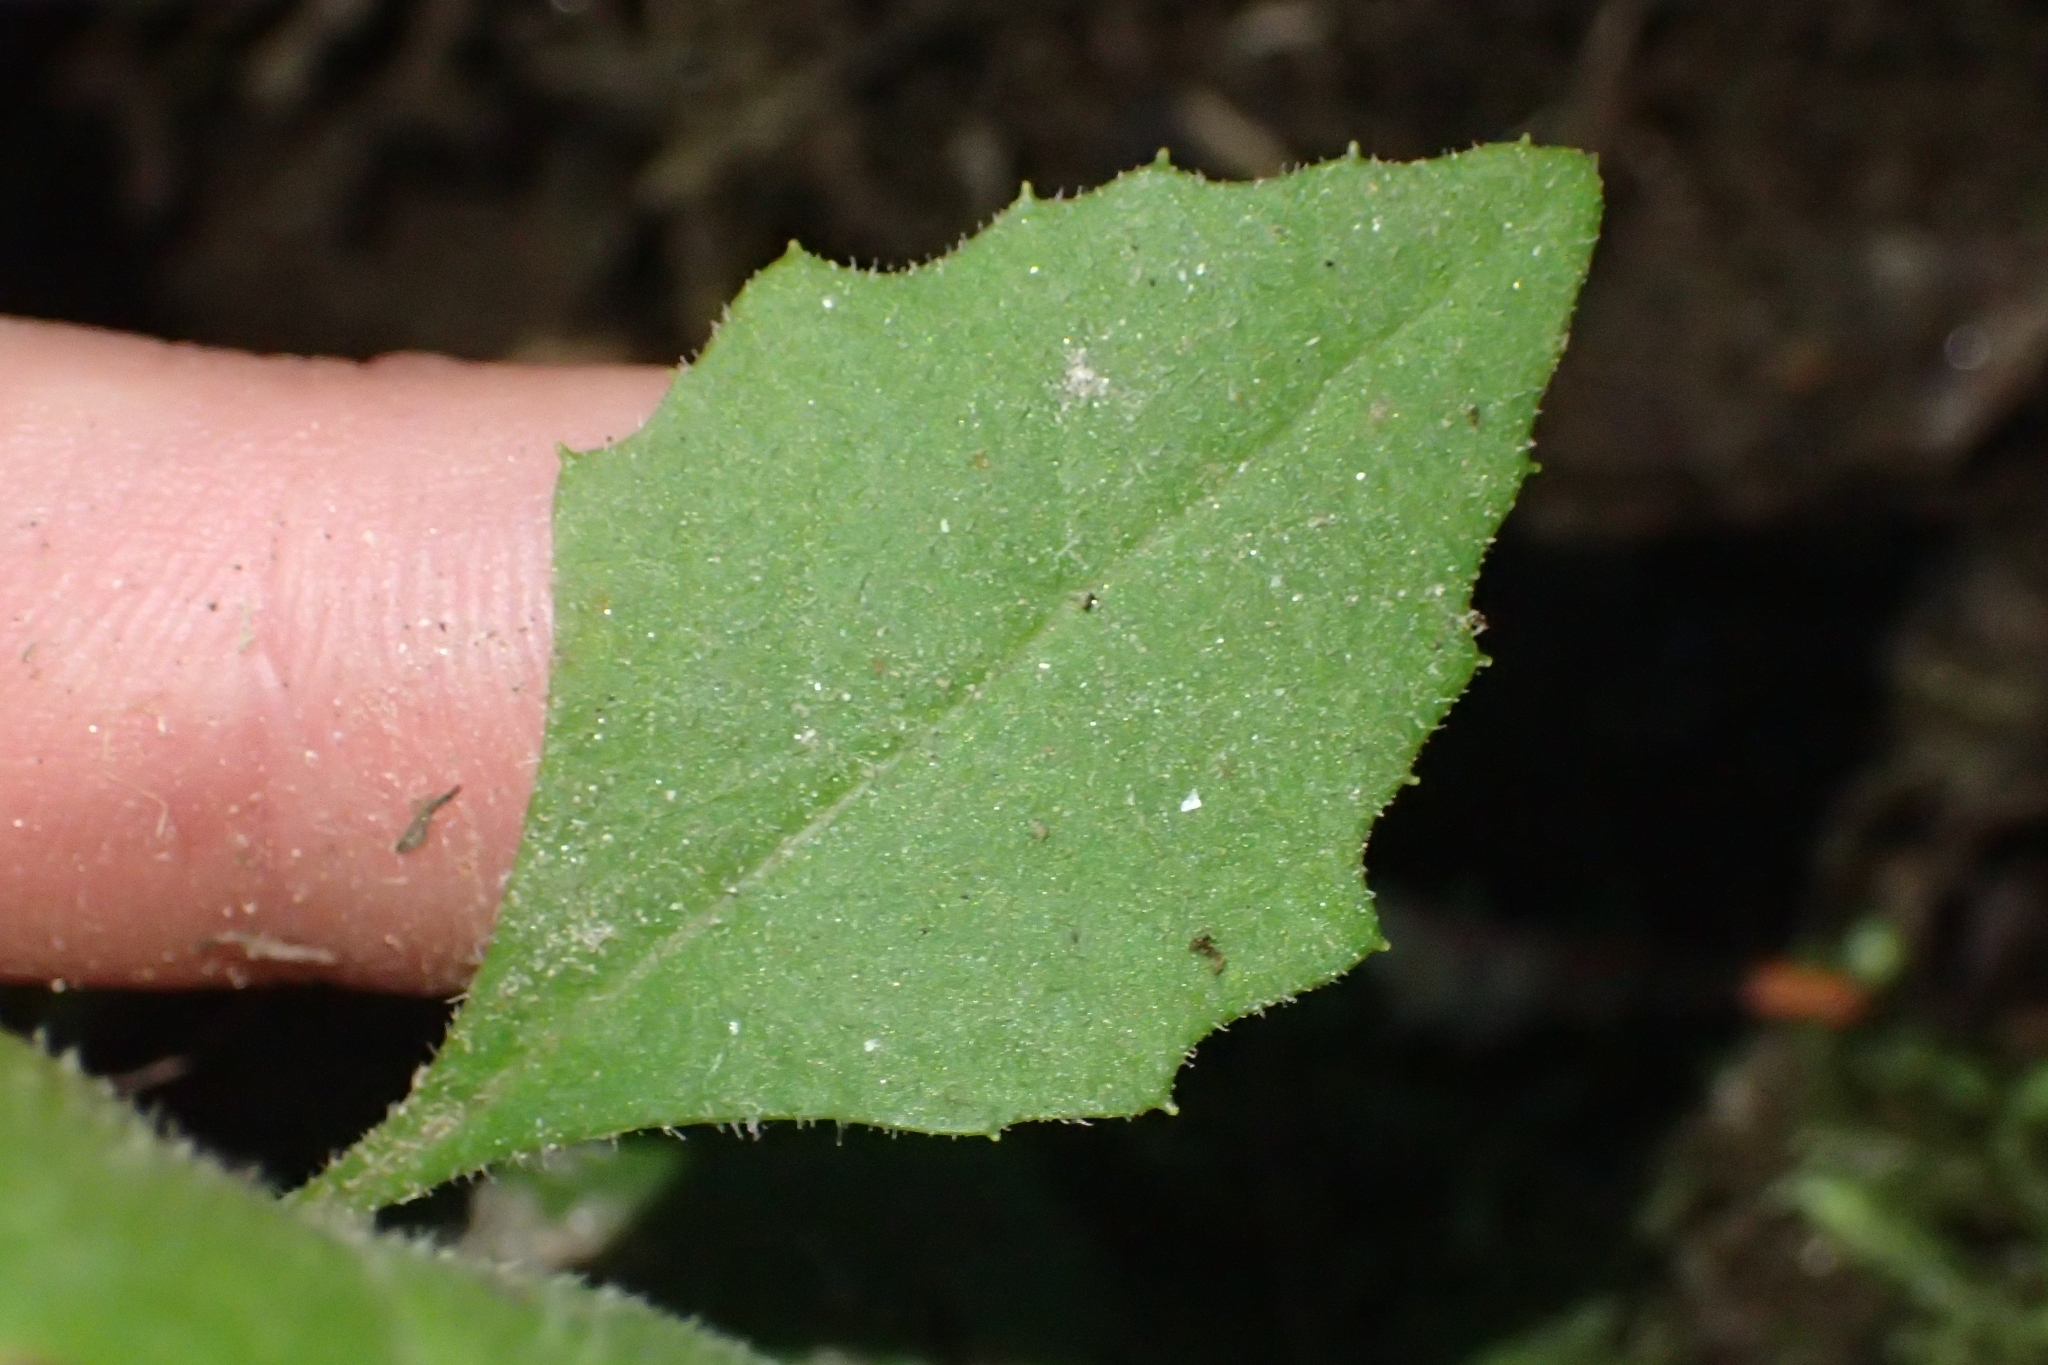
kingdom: Plantae
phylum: Tracheophyta
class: Magnoliopsida
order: Asterales
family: Asteraceae
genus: Senecio
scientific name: Senecio rufiglandulosus
